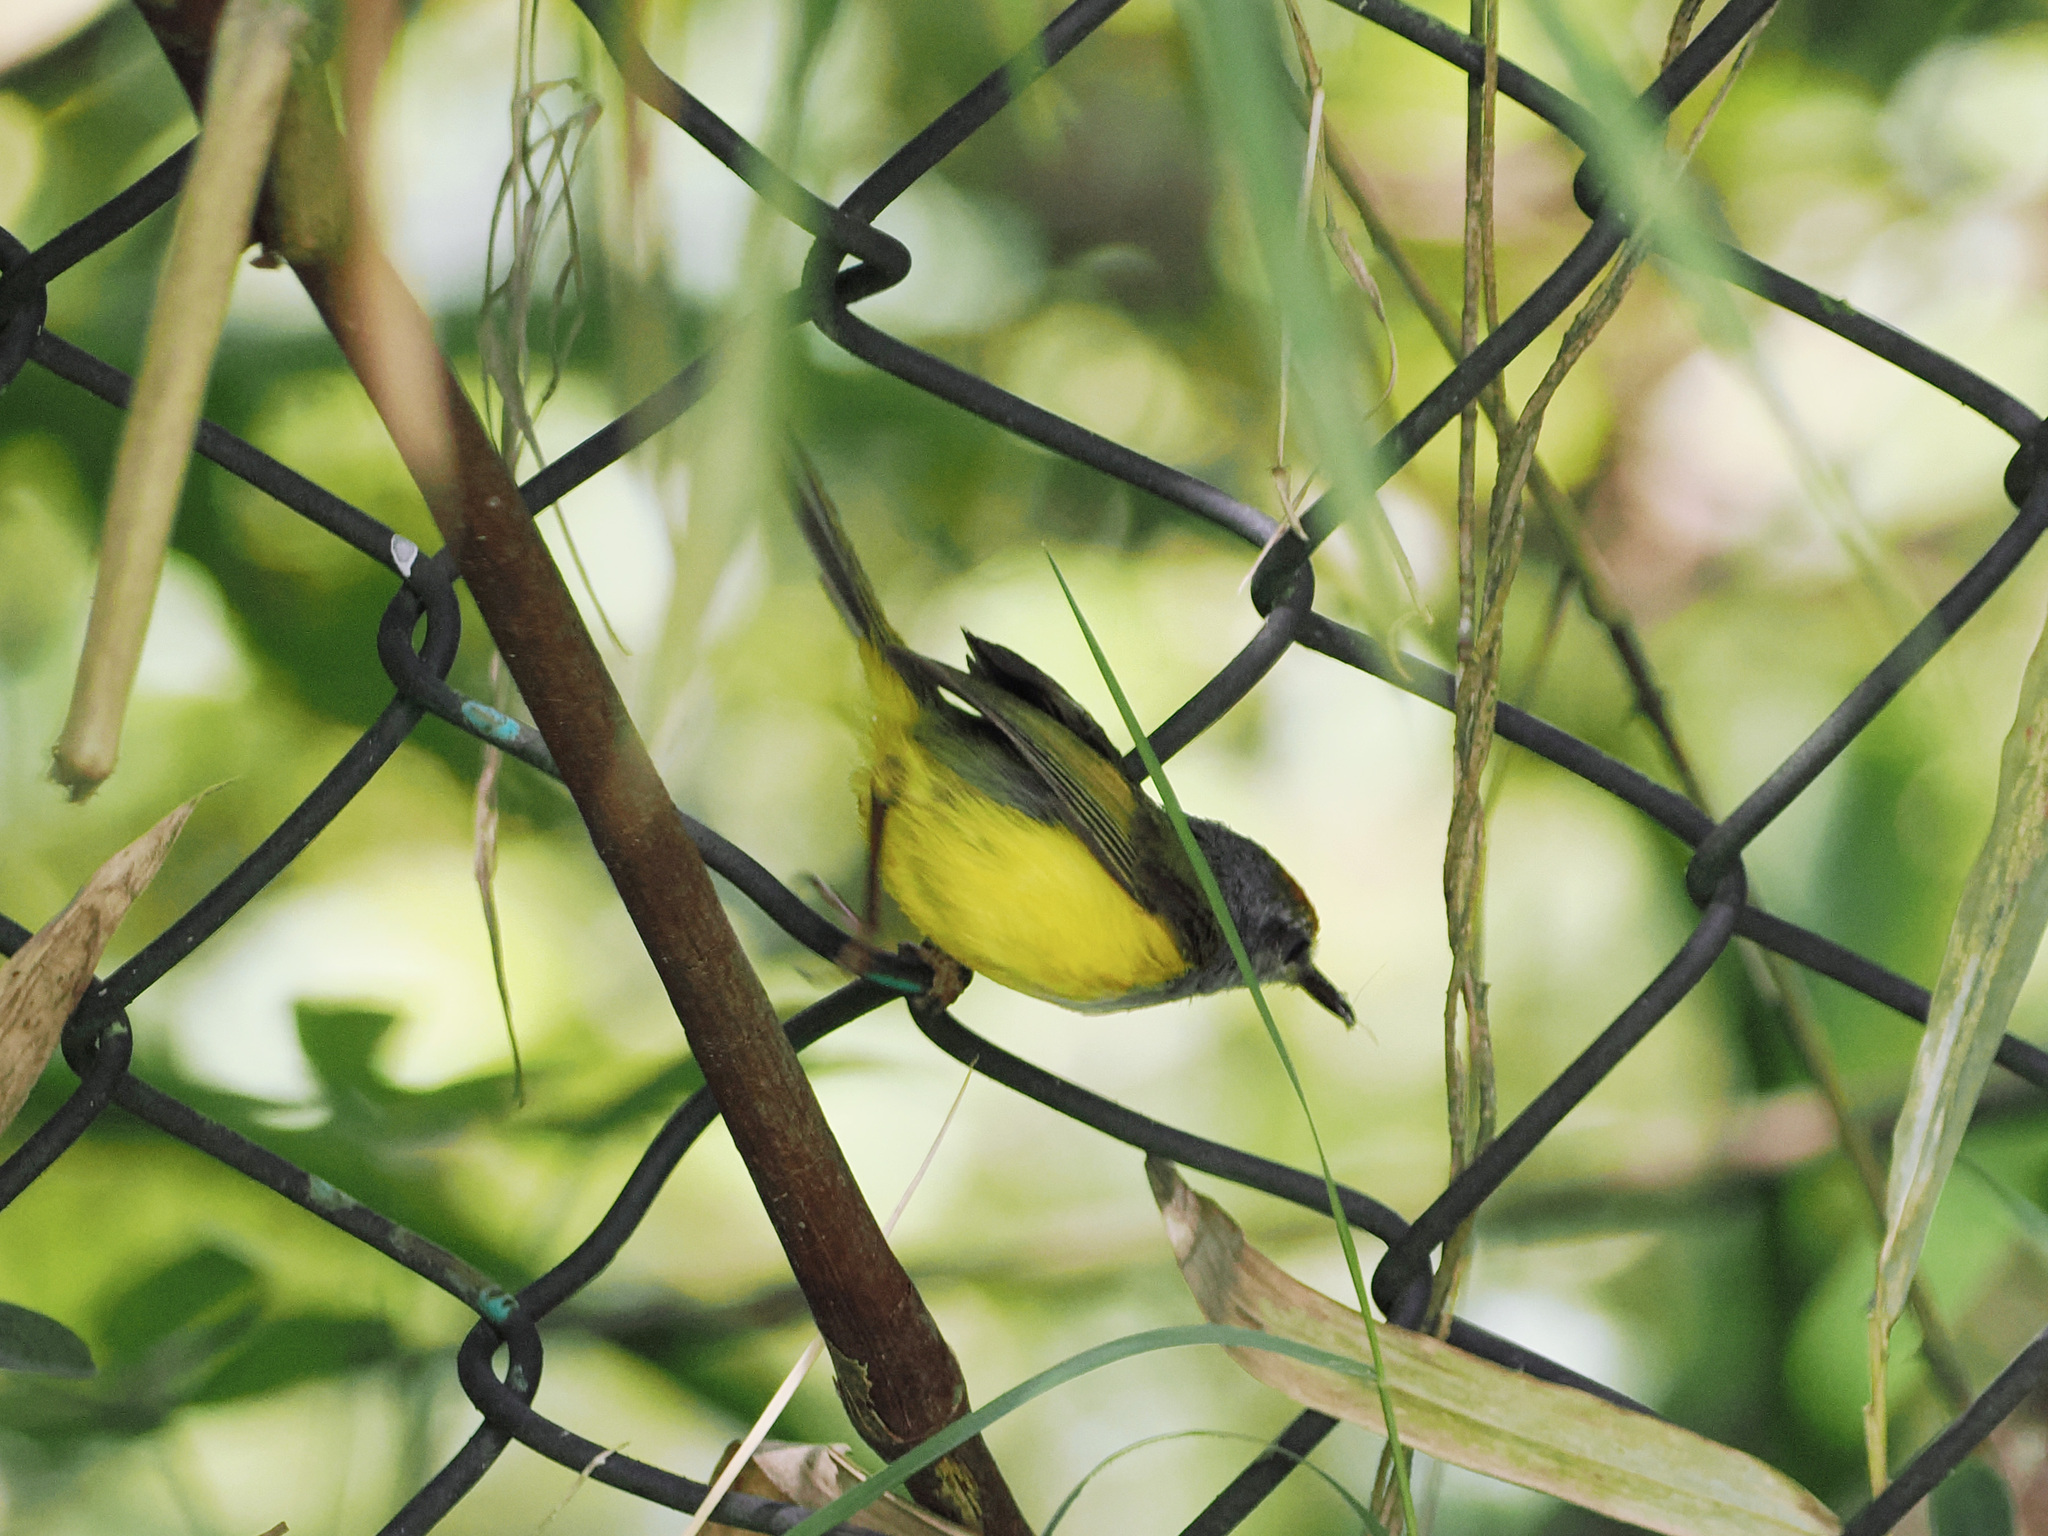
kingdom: Animalia
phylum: Chordata
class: Aves
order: Passeriformes
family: Cettiidae
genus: Phyllergates
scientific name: Phyllergates cuculatus
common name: Mountain tailorbird
